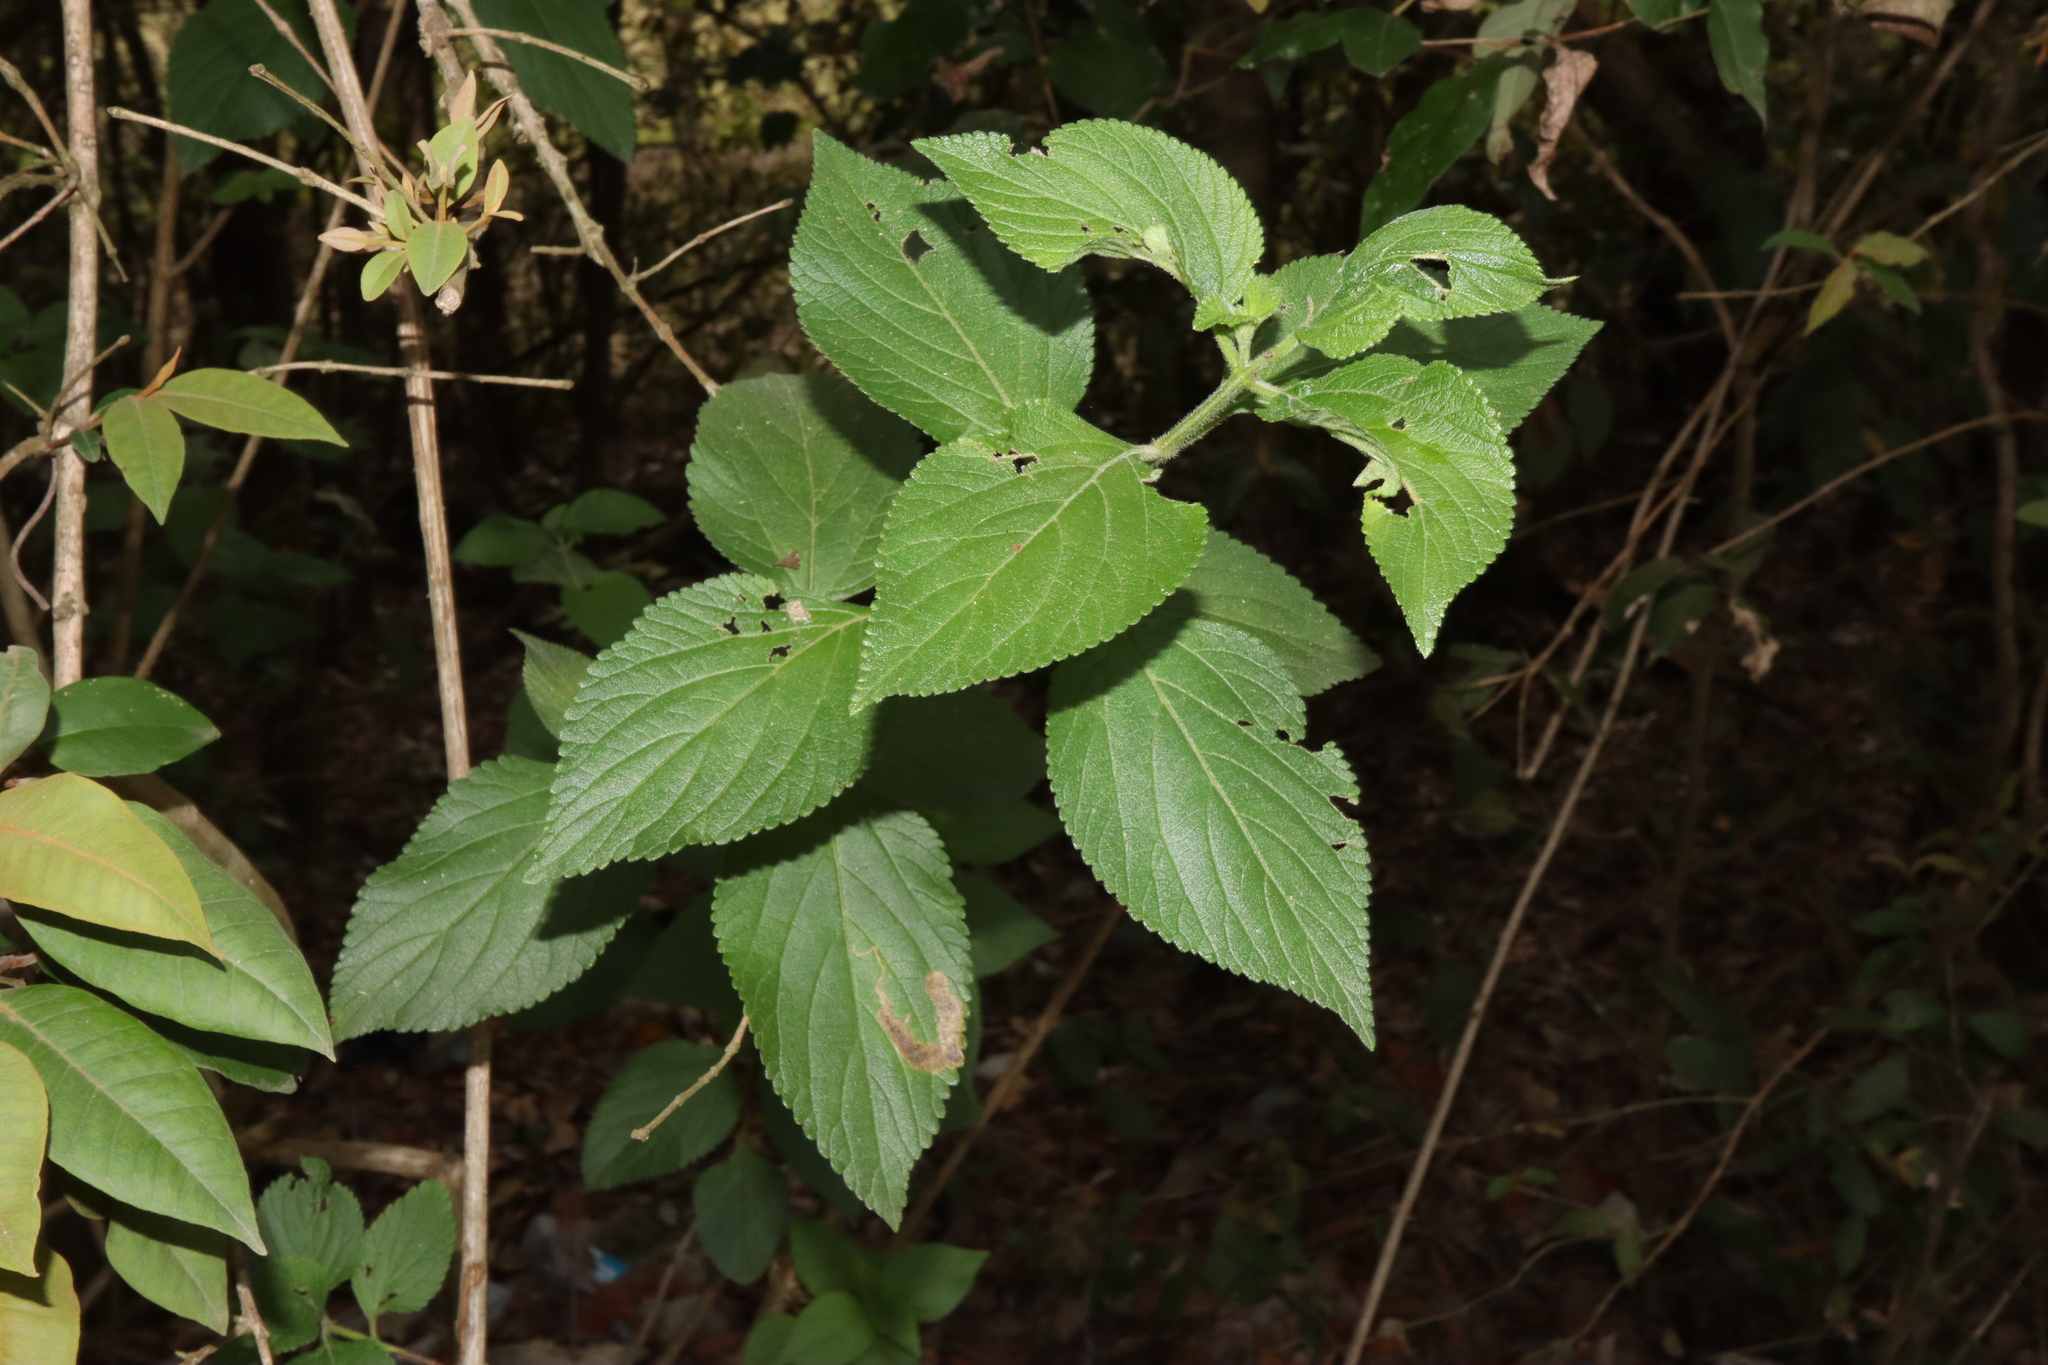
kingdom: Plantae
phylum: Tracheophyta
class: Magnoliopsida
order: Lamiales
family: Verbenaceae
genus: Lantana
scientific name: Lantana camara
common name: Lantana
